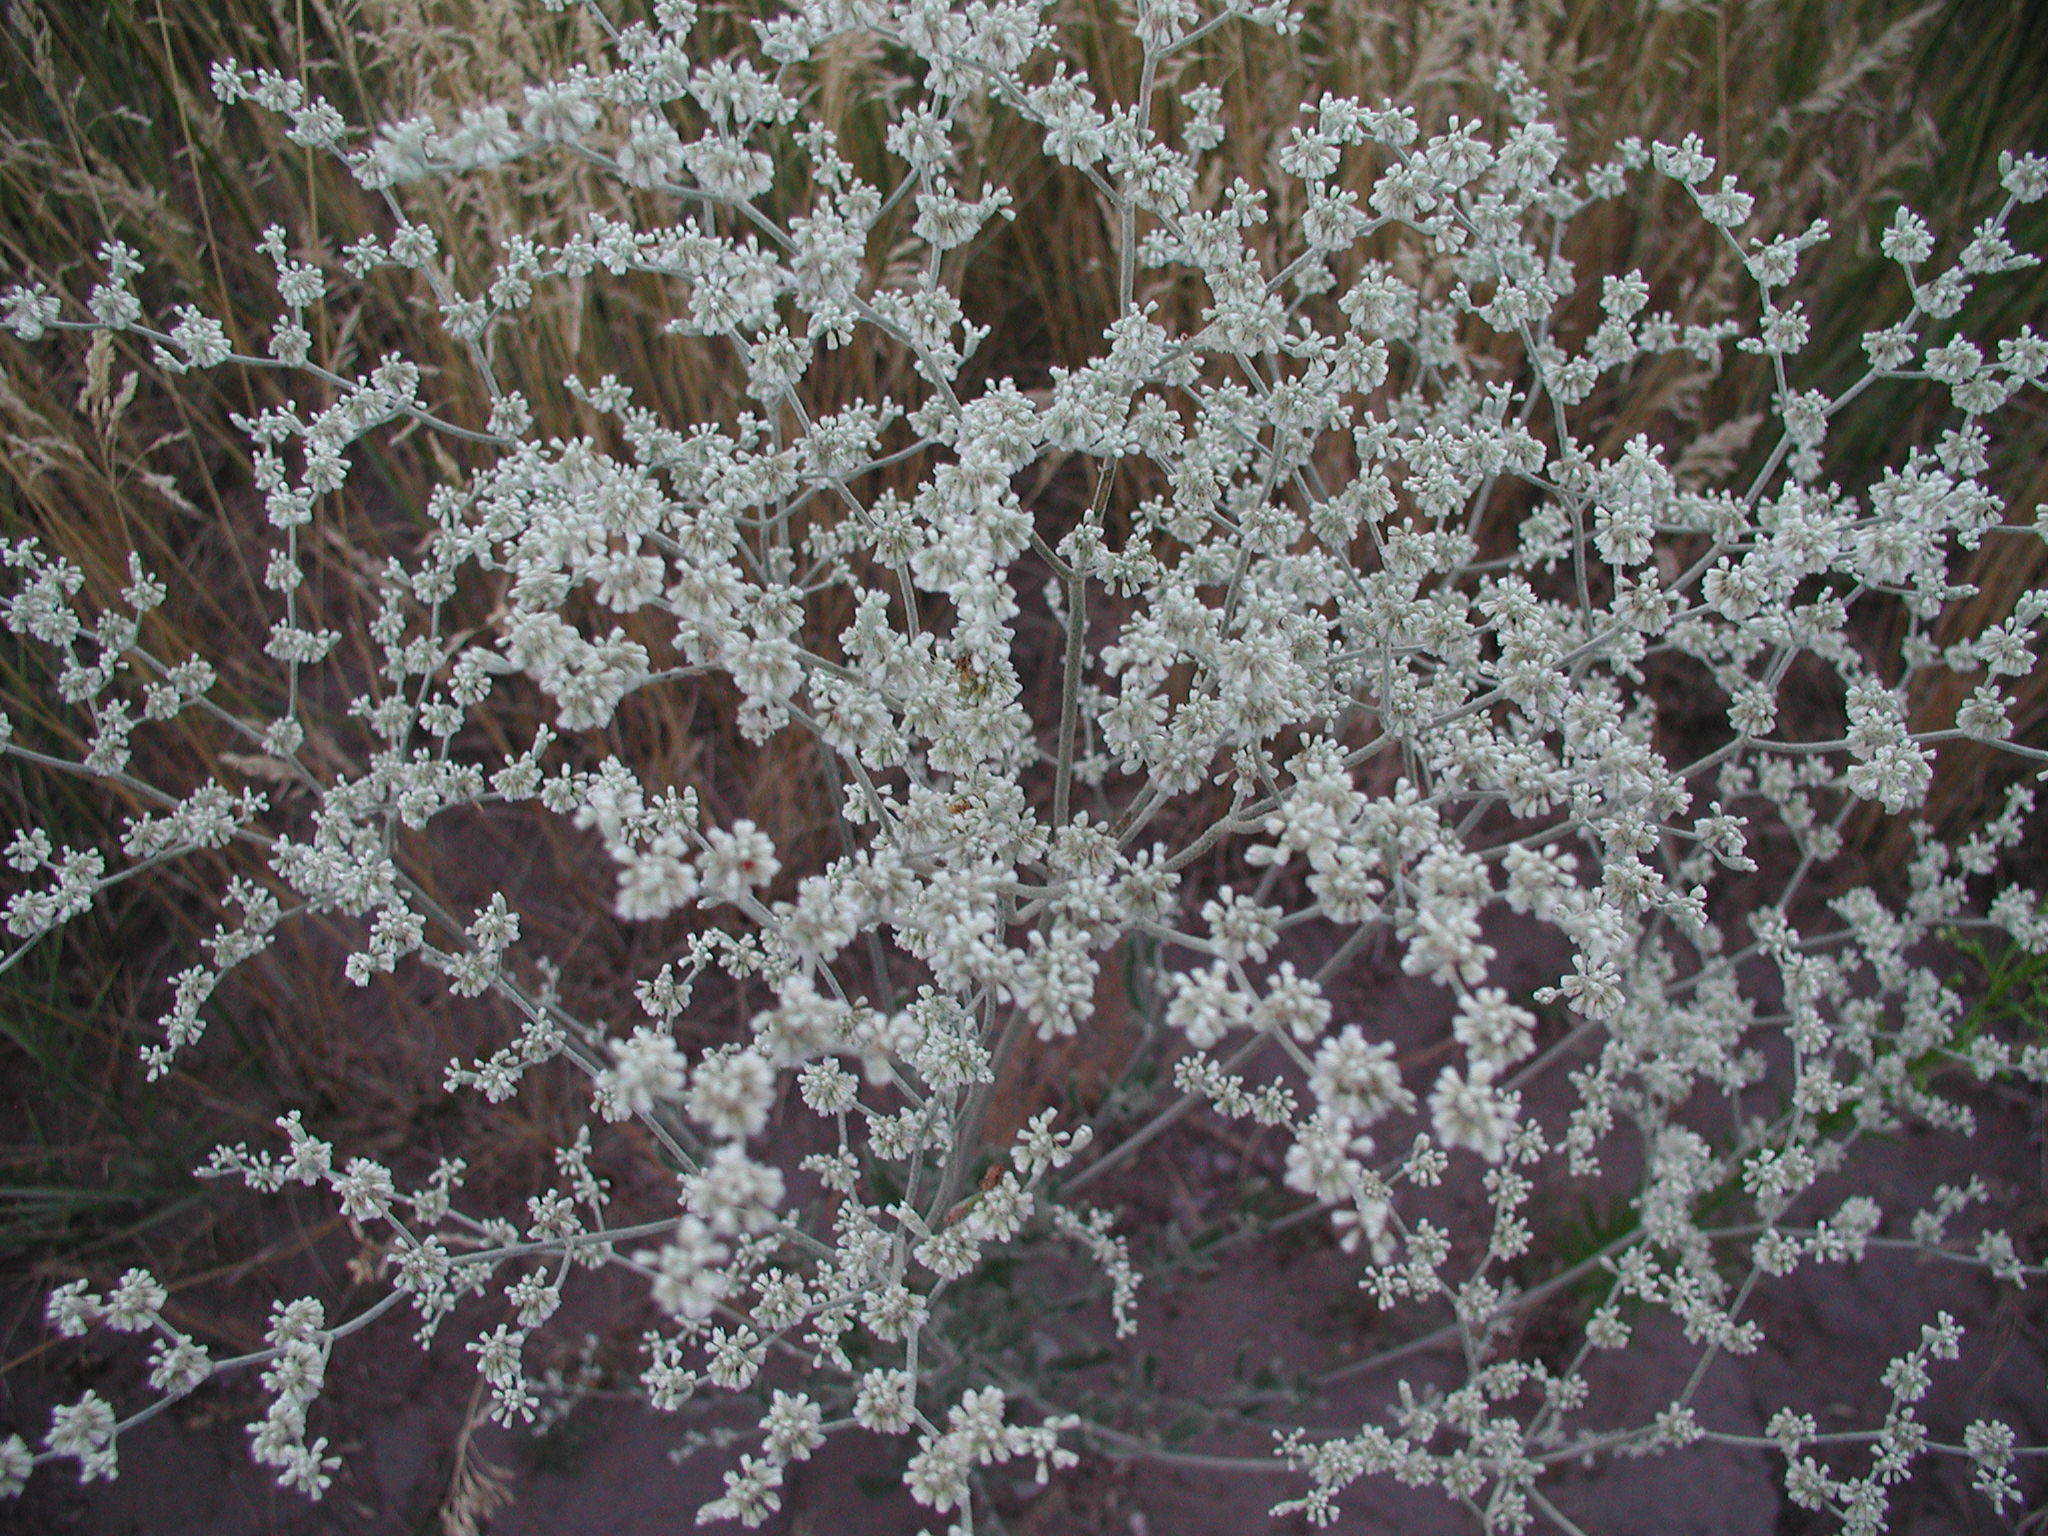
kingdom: Plantae
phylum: Tracheophyta
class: Magnoliopsida
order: Caryophyllales
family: Polygonaceae
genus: Eriogonum
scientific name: Eriogonum annuum
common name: Annual wild buckwheat
